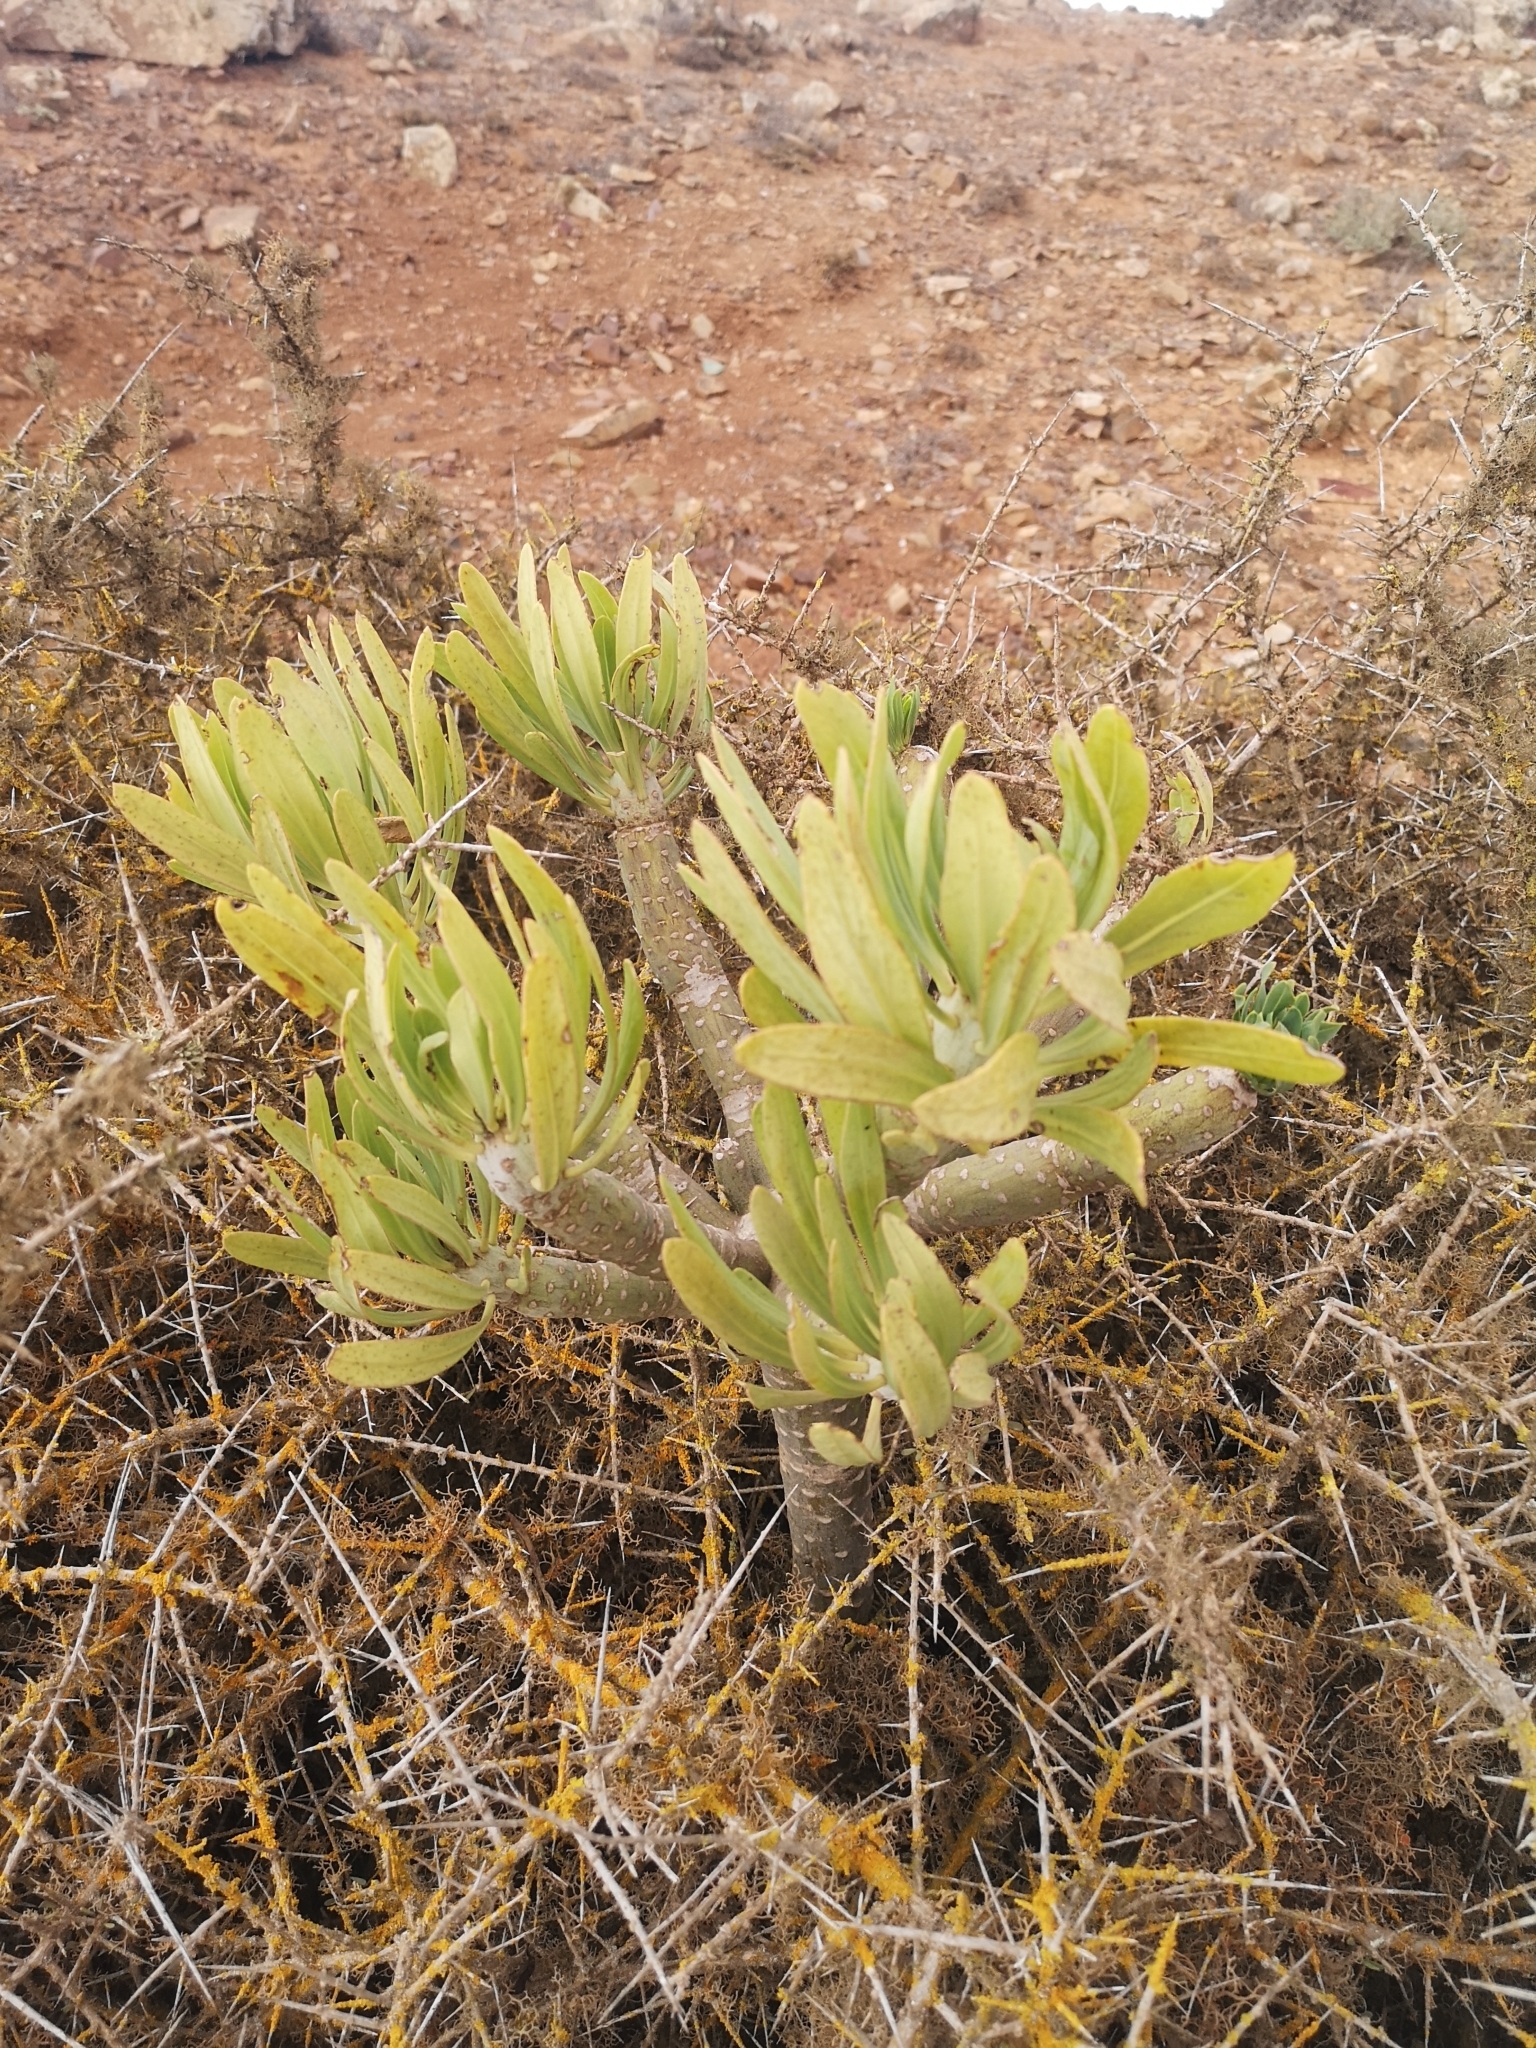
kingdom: Plantae
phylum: Tracheophyta
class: Magnoliopsida
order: Asterales
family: Asteraceae
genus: Kleinia
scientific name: Kleinia neriifolia
